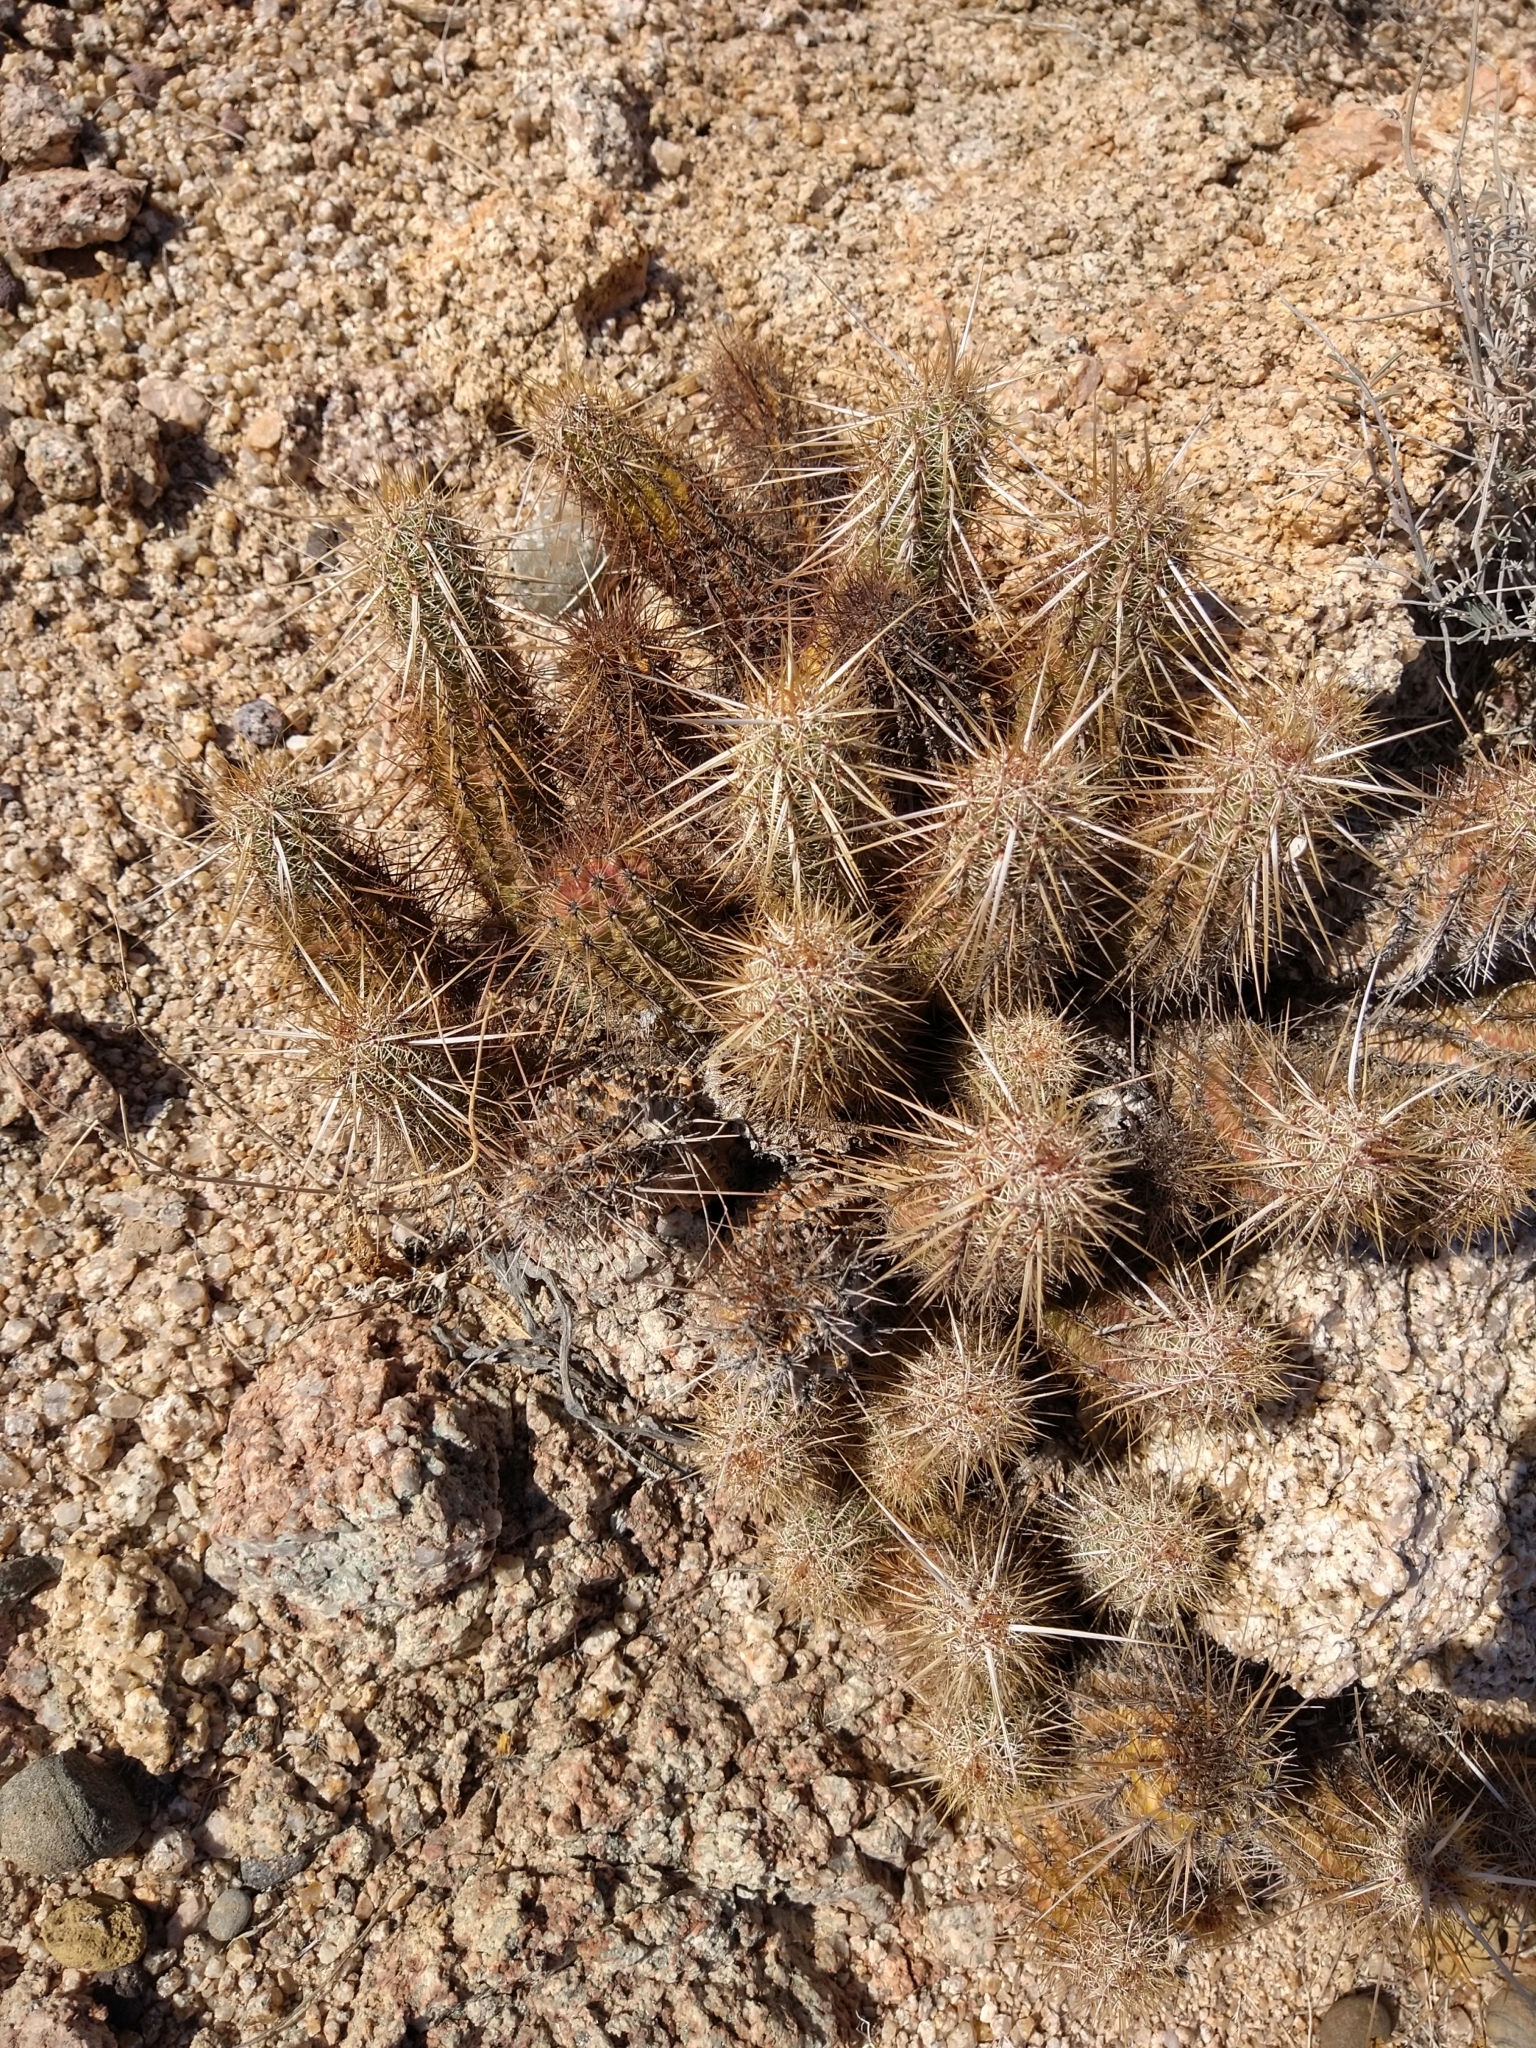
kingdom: Plantae
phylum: Tracheophyta
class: Magnoliopsida
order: Caryophyllales
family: Cactaceae
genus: Echinocereus
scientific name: Echinocereus brandegeei
